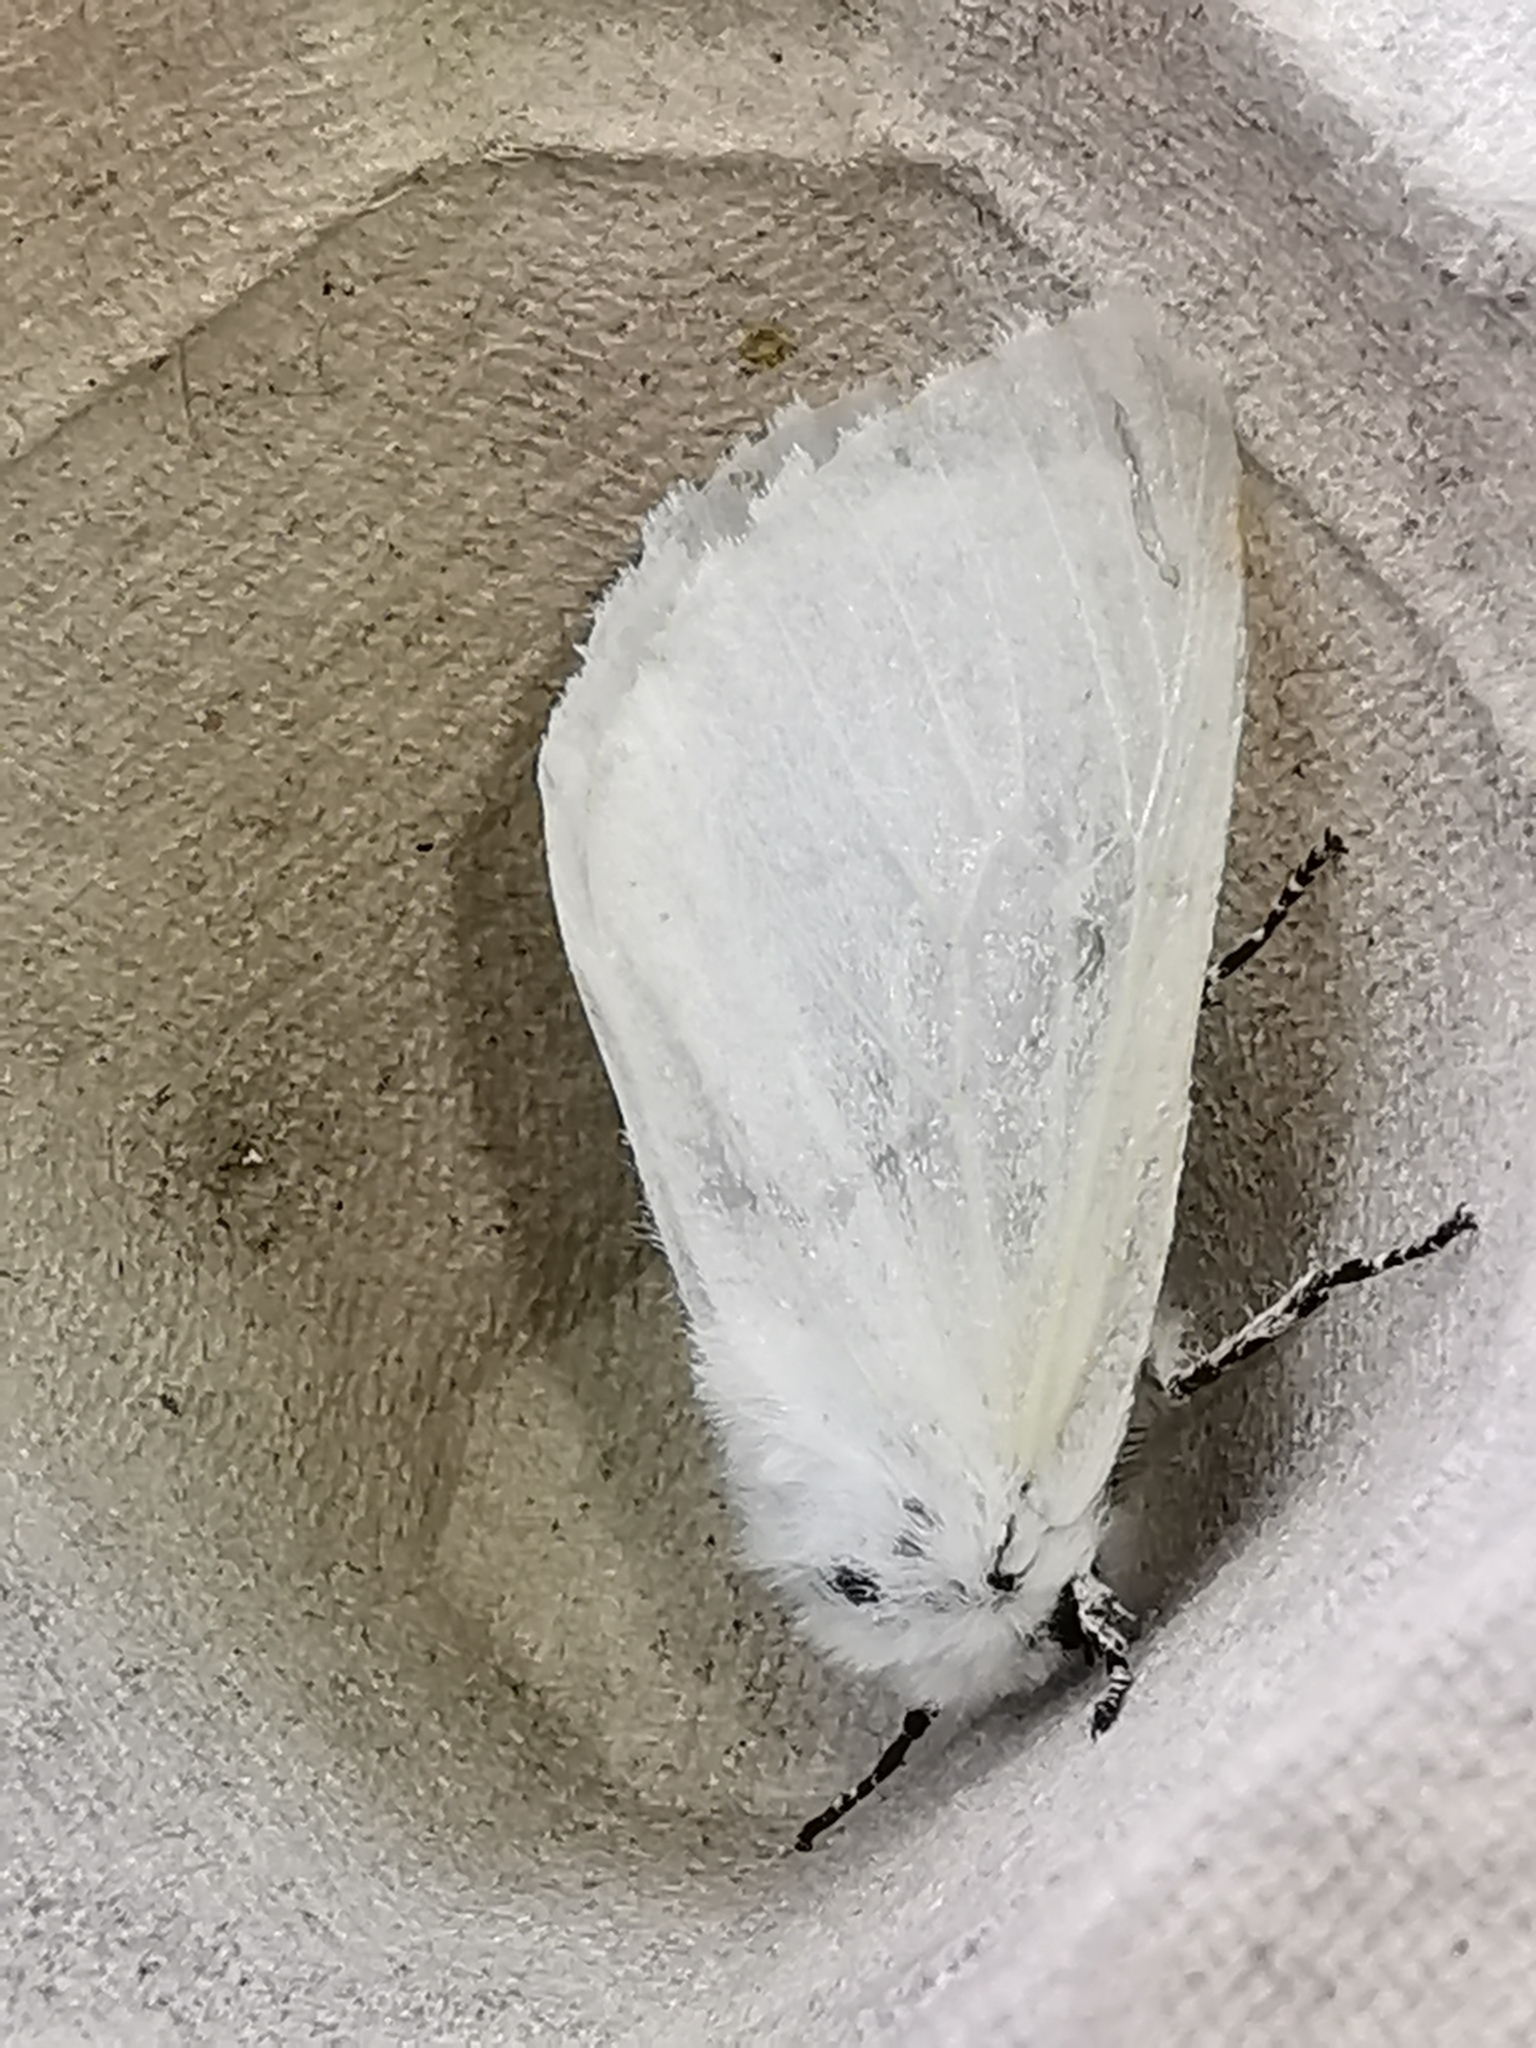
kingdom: Animalia
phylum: Arthropoda
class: Insecta
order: Lepidoptera
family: Erebidae
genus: Leucoma
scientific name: Leucoma salicis
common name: White satin moth
